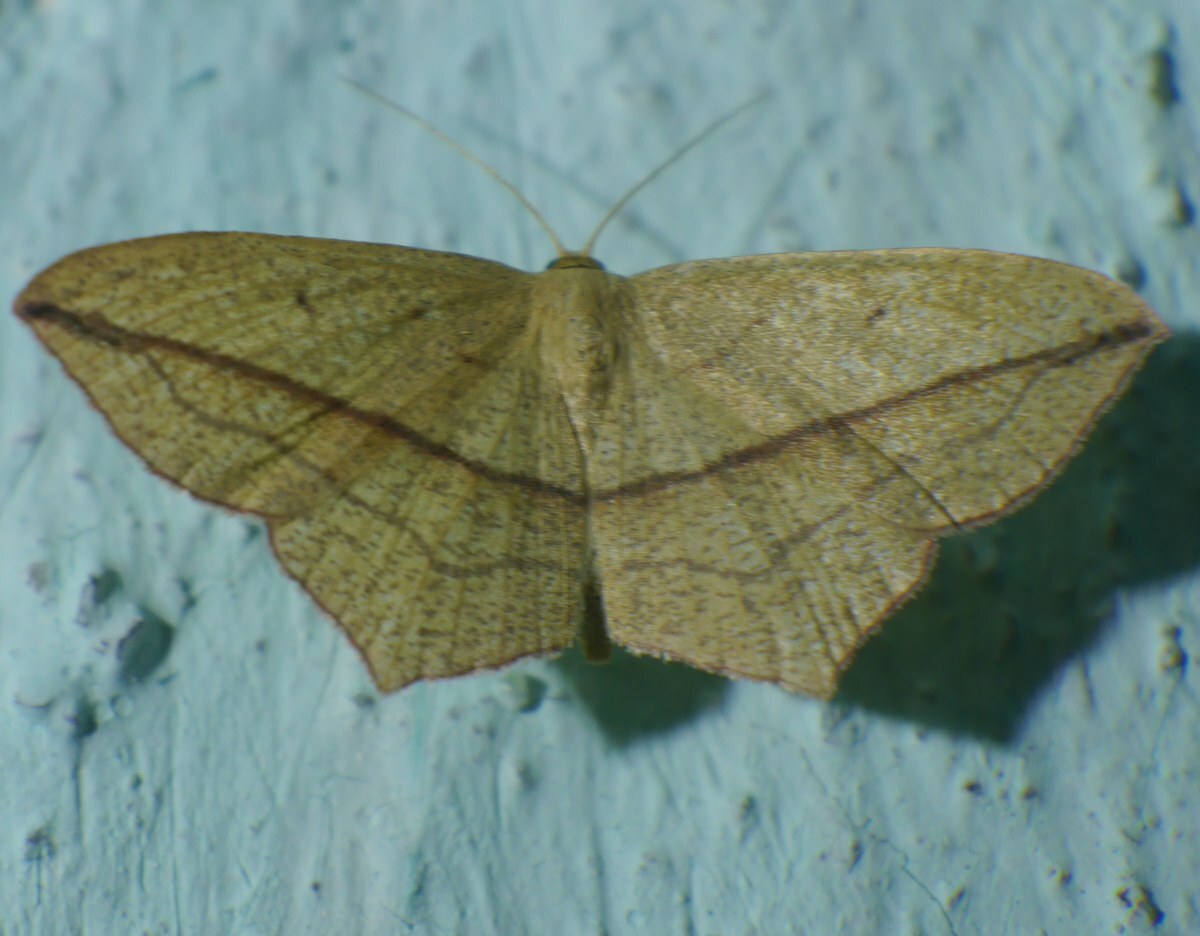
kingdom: Animalia
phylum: Arthropoda
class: Insecta
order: Lepidoptera
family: Geometridae
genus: Timandra
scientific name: Timandra comae
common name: Blood-vein
